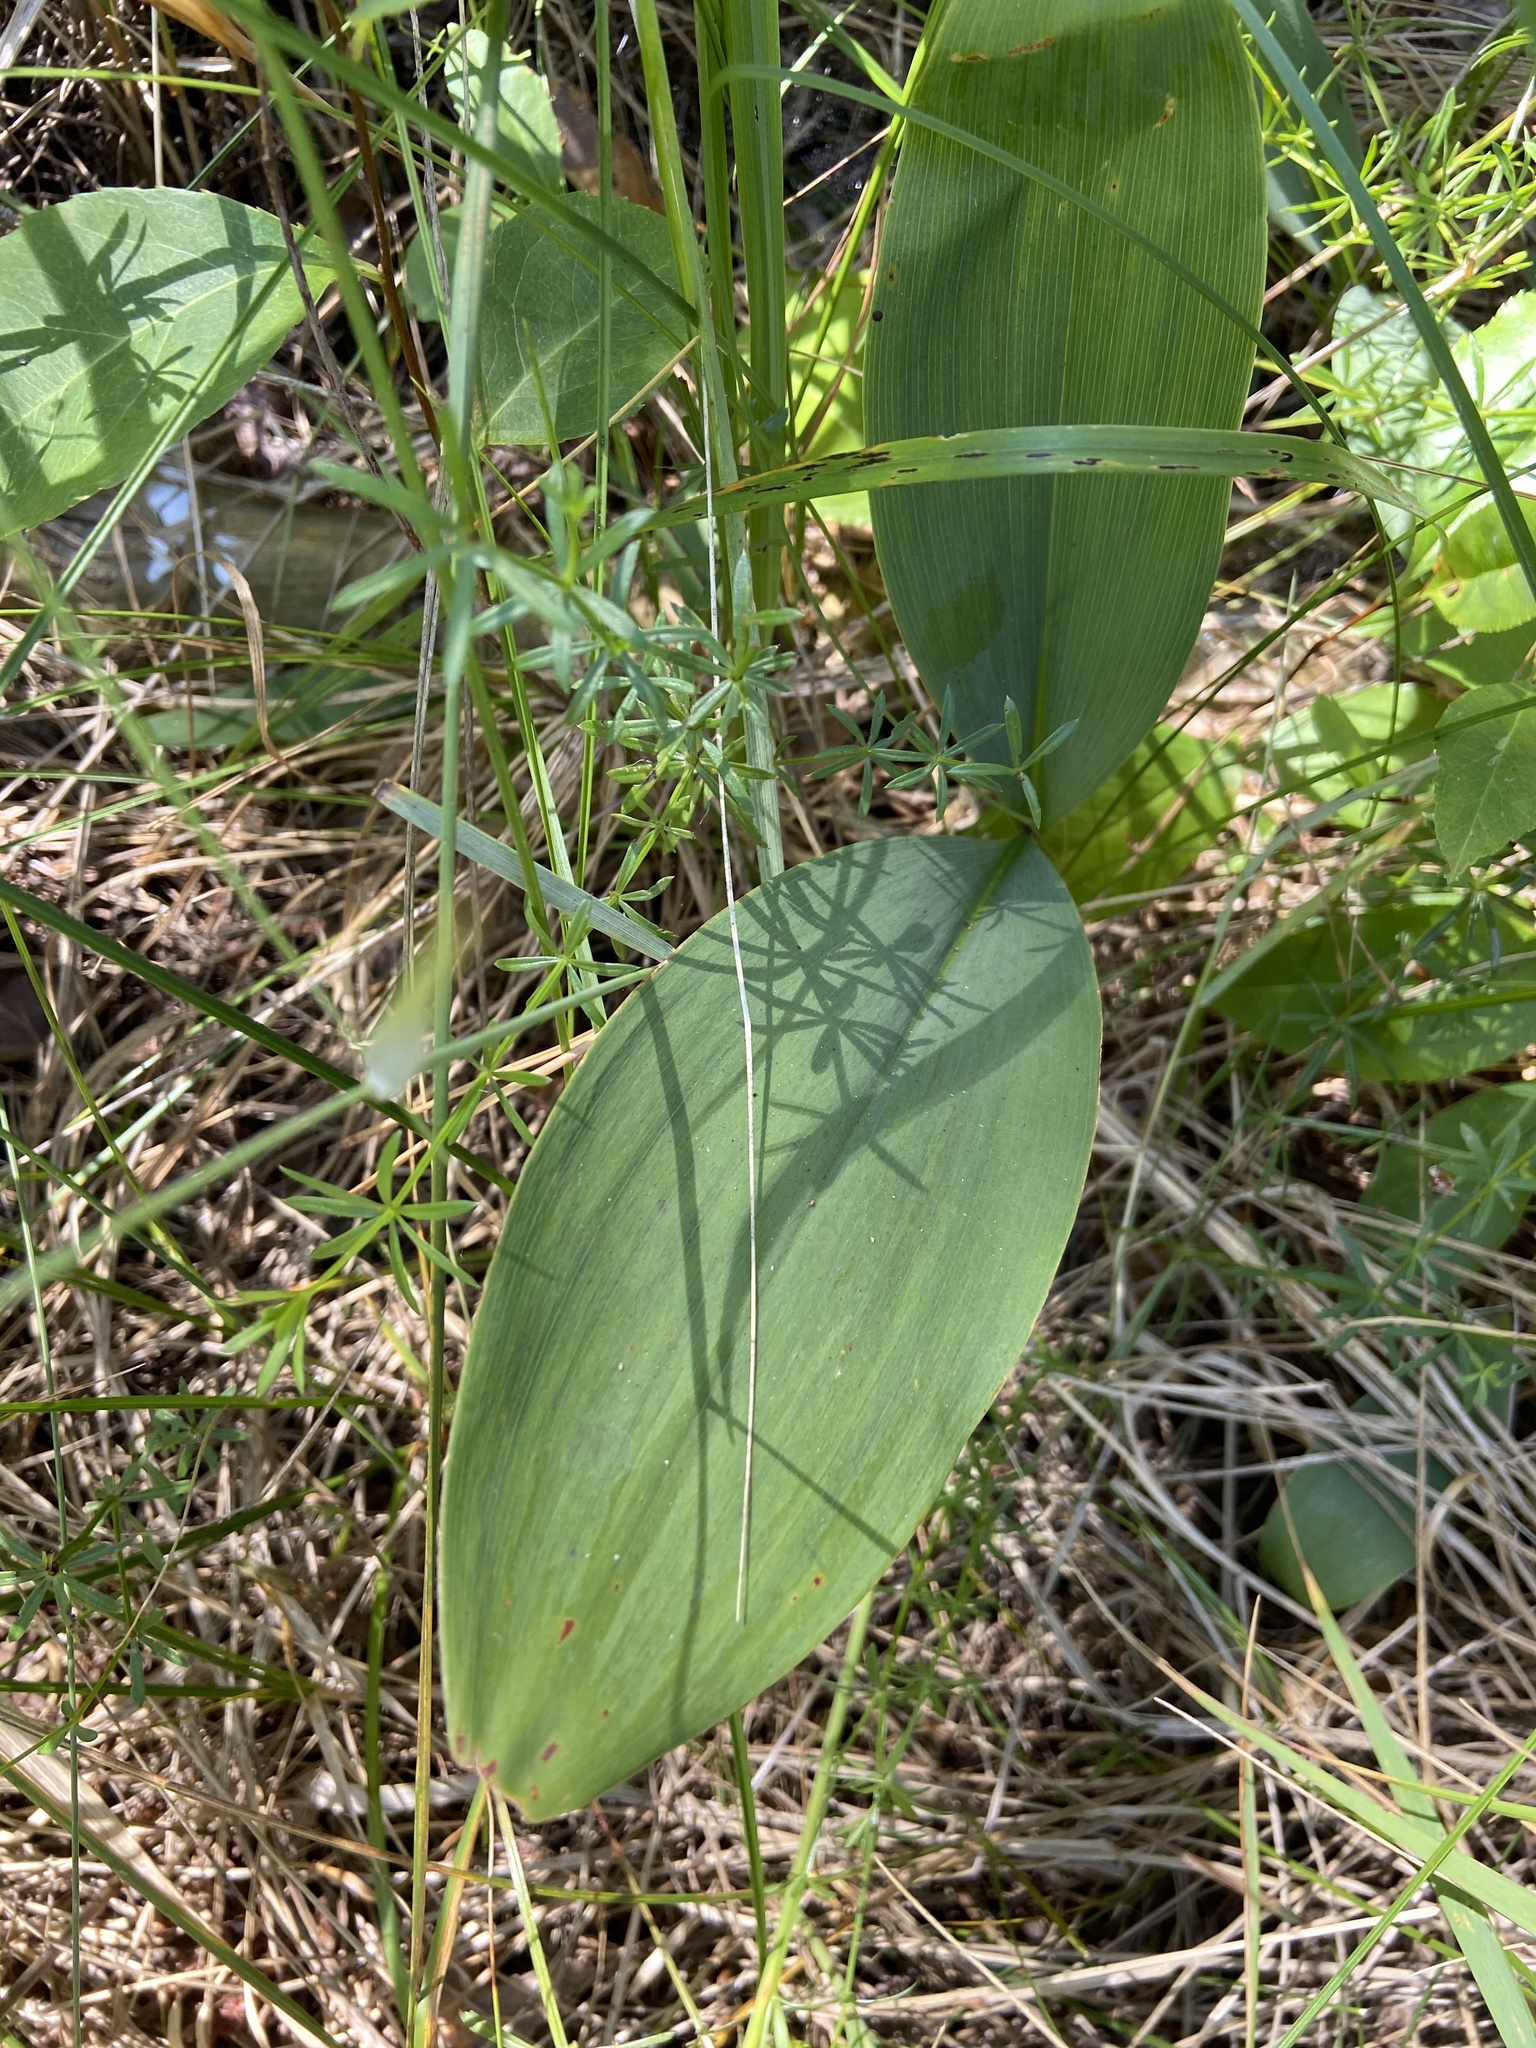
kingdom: Plantae
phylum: Tracheophyta
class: Liliopsida
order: Asparagales
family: Asparagaceae
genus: Convallaria
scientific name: Convallaria majalis
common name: Lily-of-the-valley
